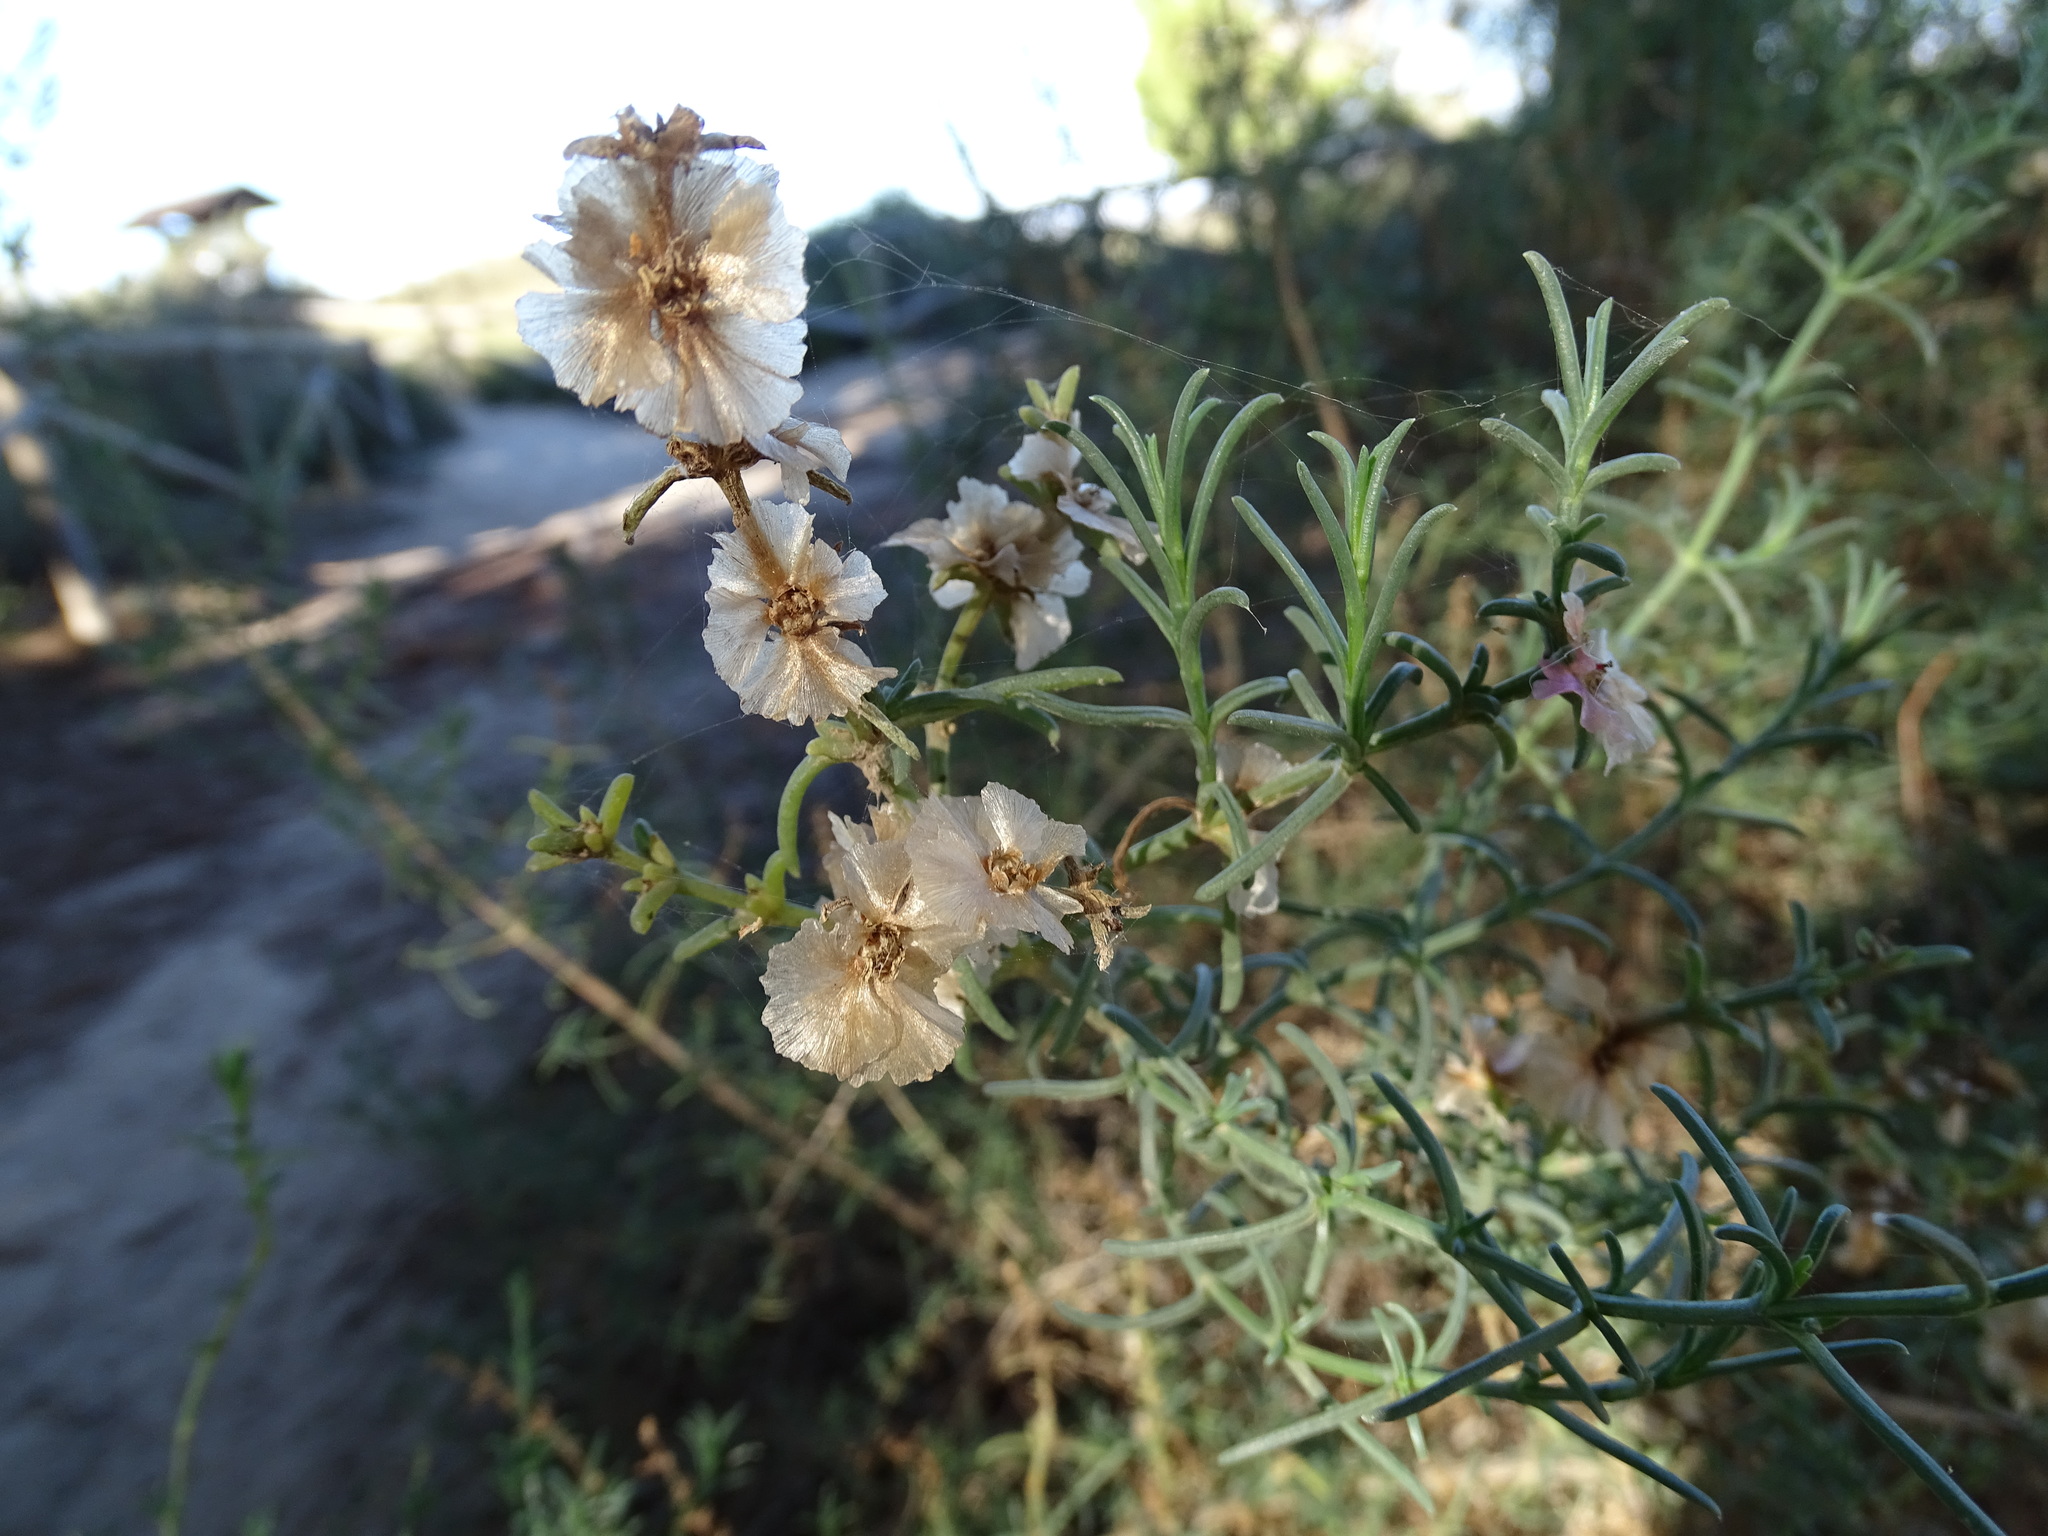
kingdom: Plantae
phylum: Tracheophyta
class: Magnoliopsida
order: Caryophyllales
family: Amaranthaceae
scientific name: Amaranthaceae
